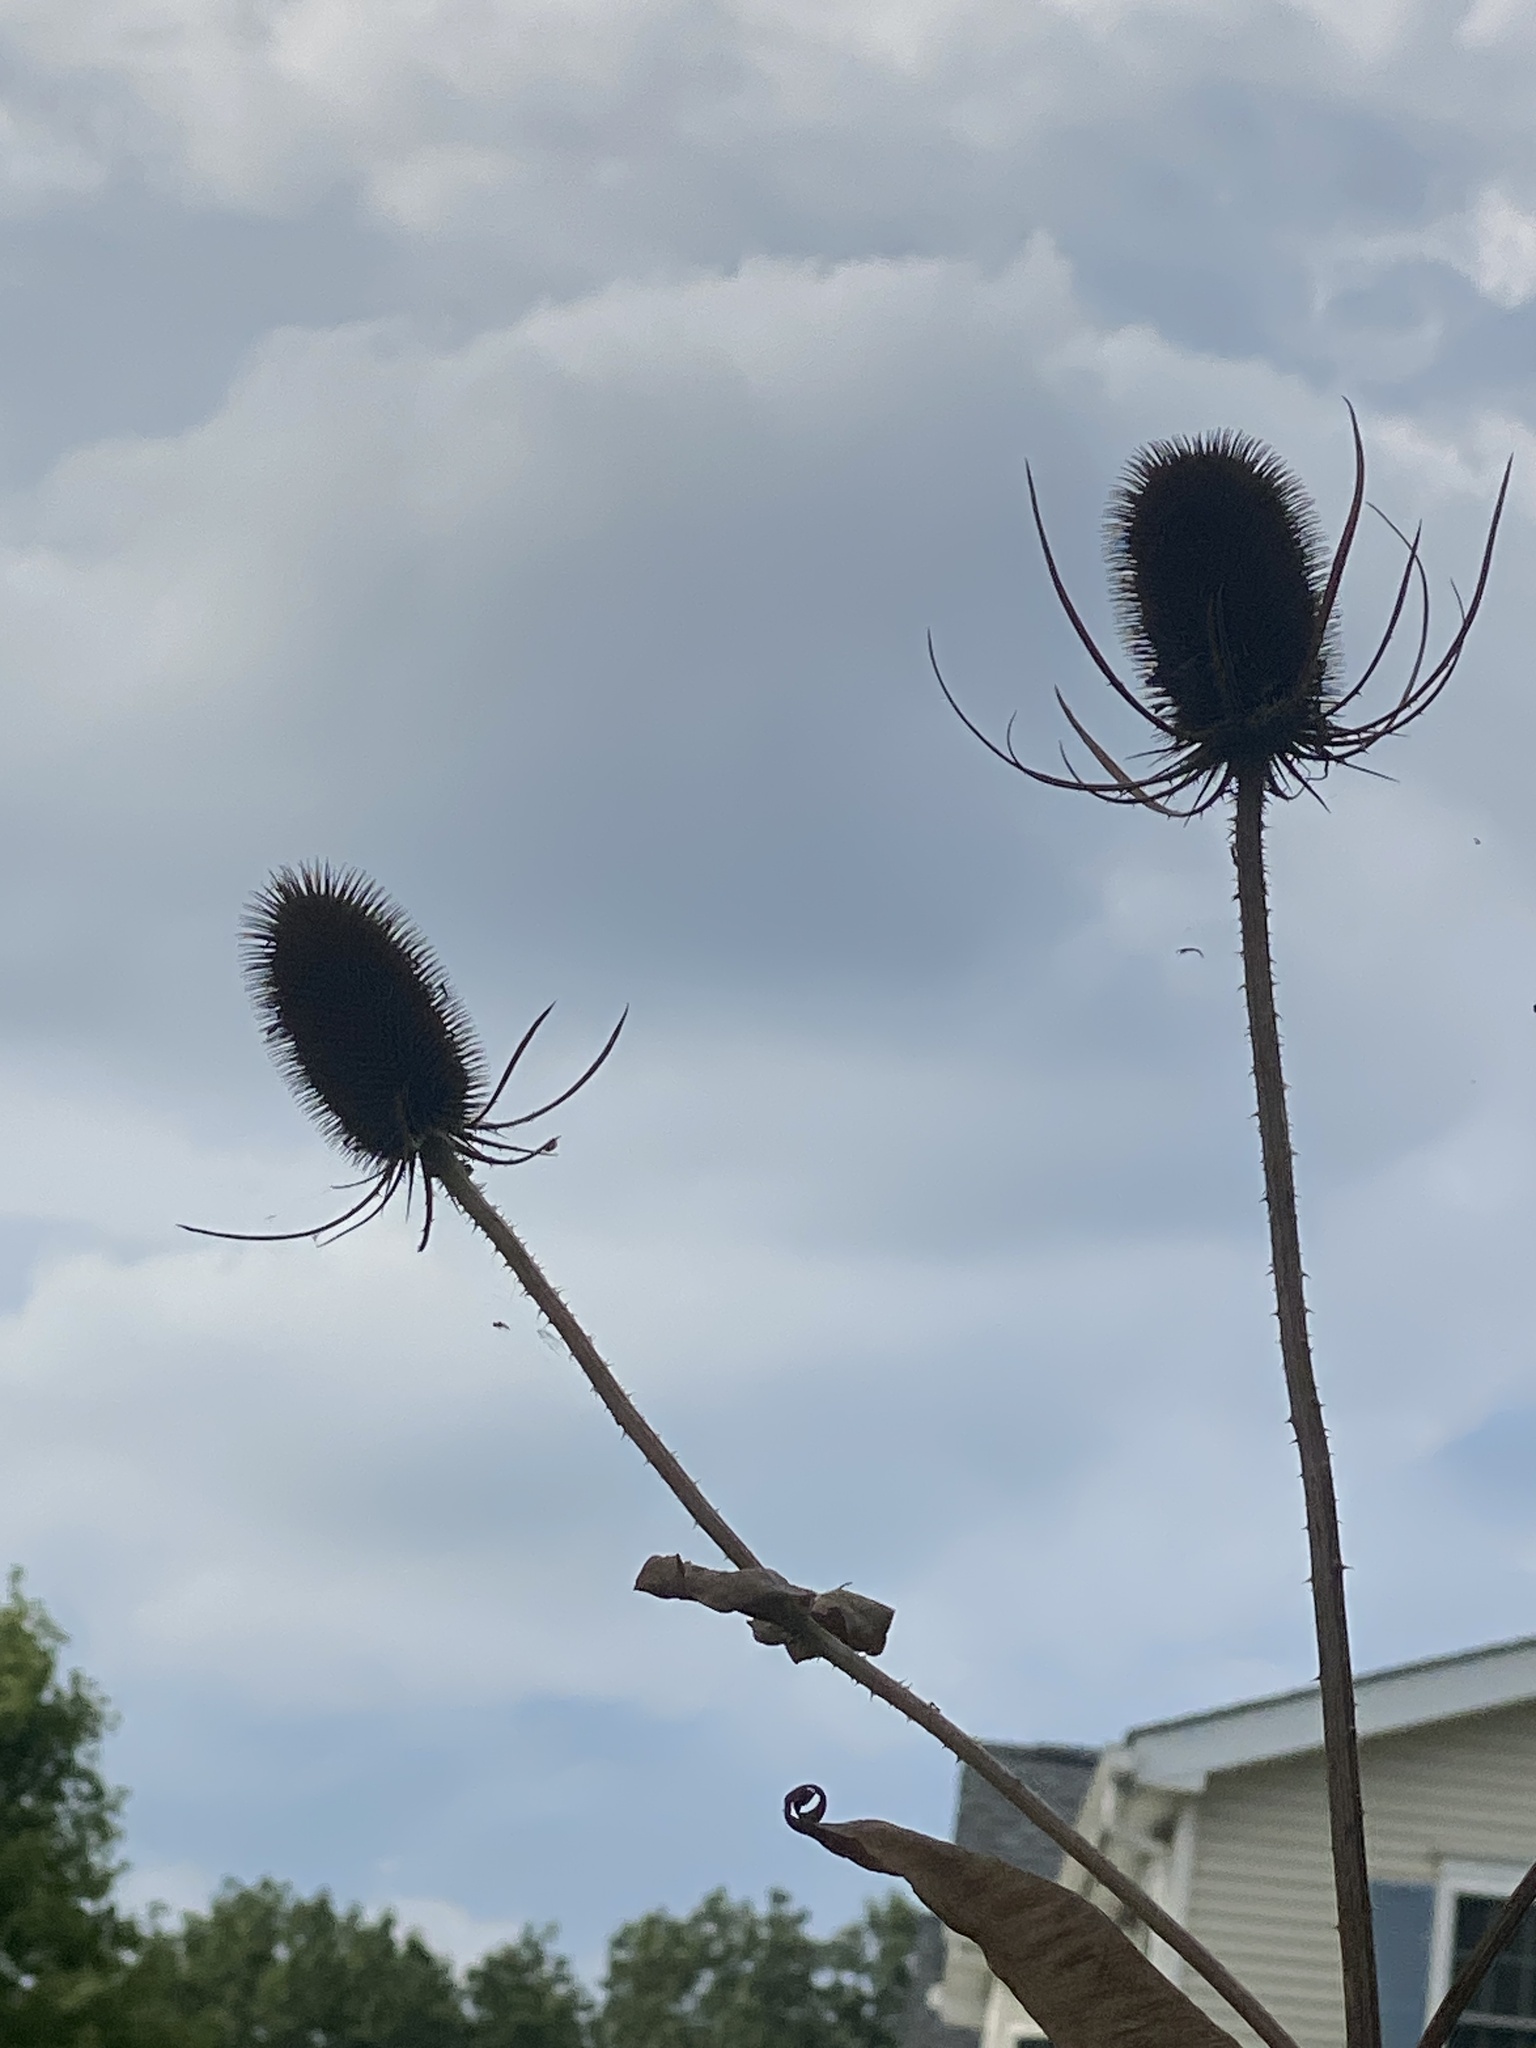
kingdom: Plantae
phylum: Tracheophyta
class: Magnoliopsida
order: Dipsacales
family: Caprifoliaceae
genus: Dipsacus
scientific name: Dipsacus fullonum
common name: Teasel
